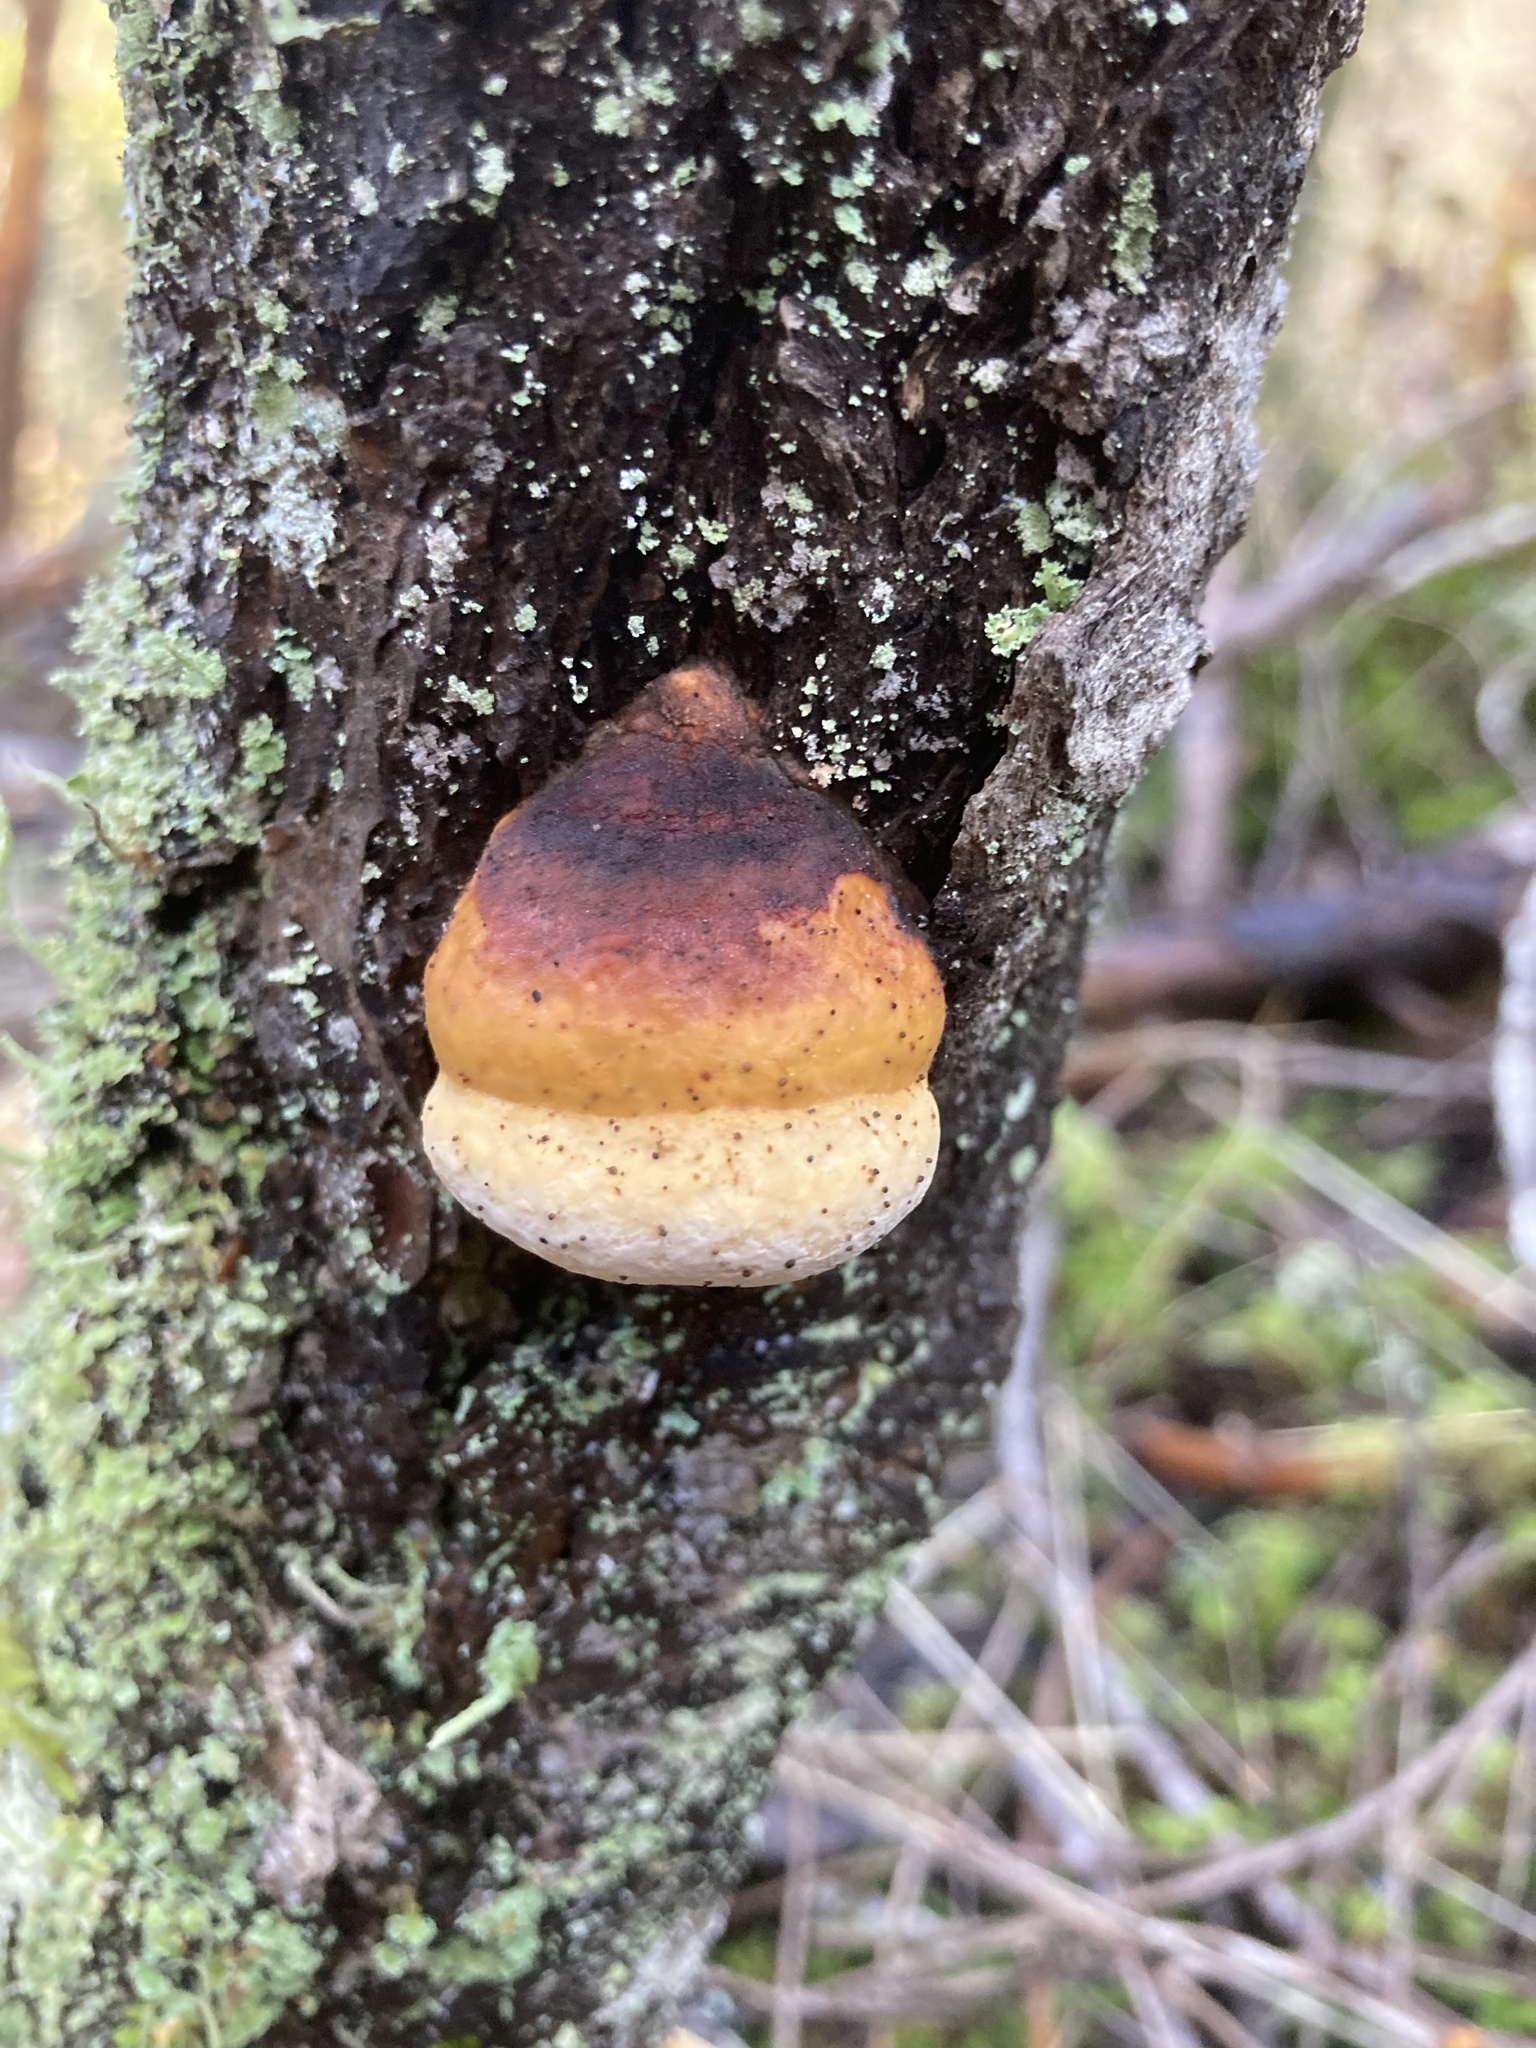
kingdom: Fungi
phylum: Basidiomycota
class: Agaricomycetes
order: Polyporales
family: Fomitopsidaceae
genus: Fomitopsis
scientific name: Fomitopsis mounceae
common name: Northern red belt
